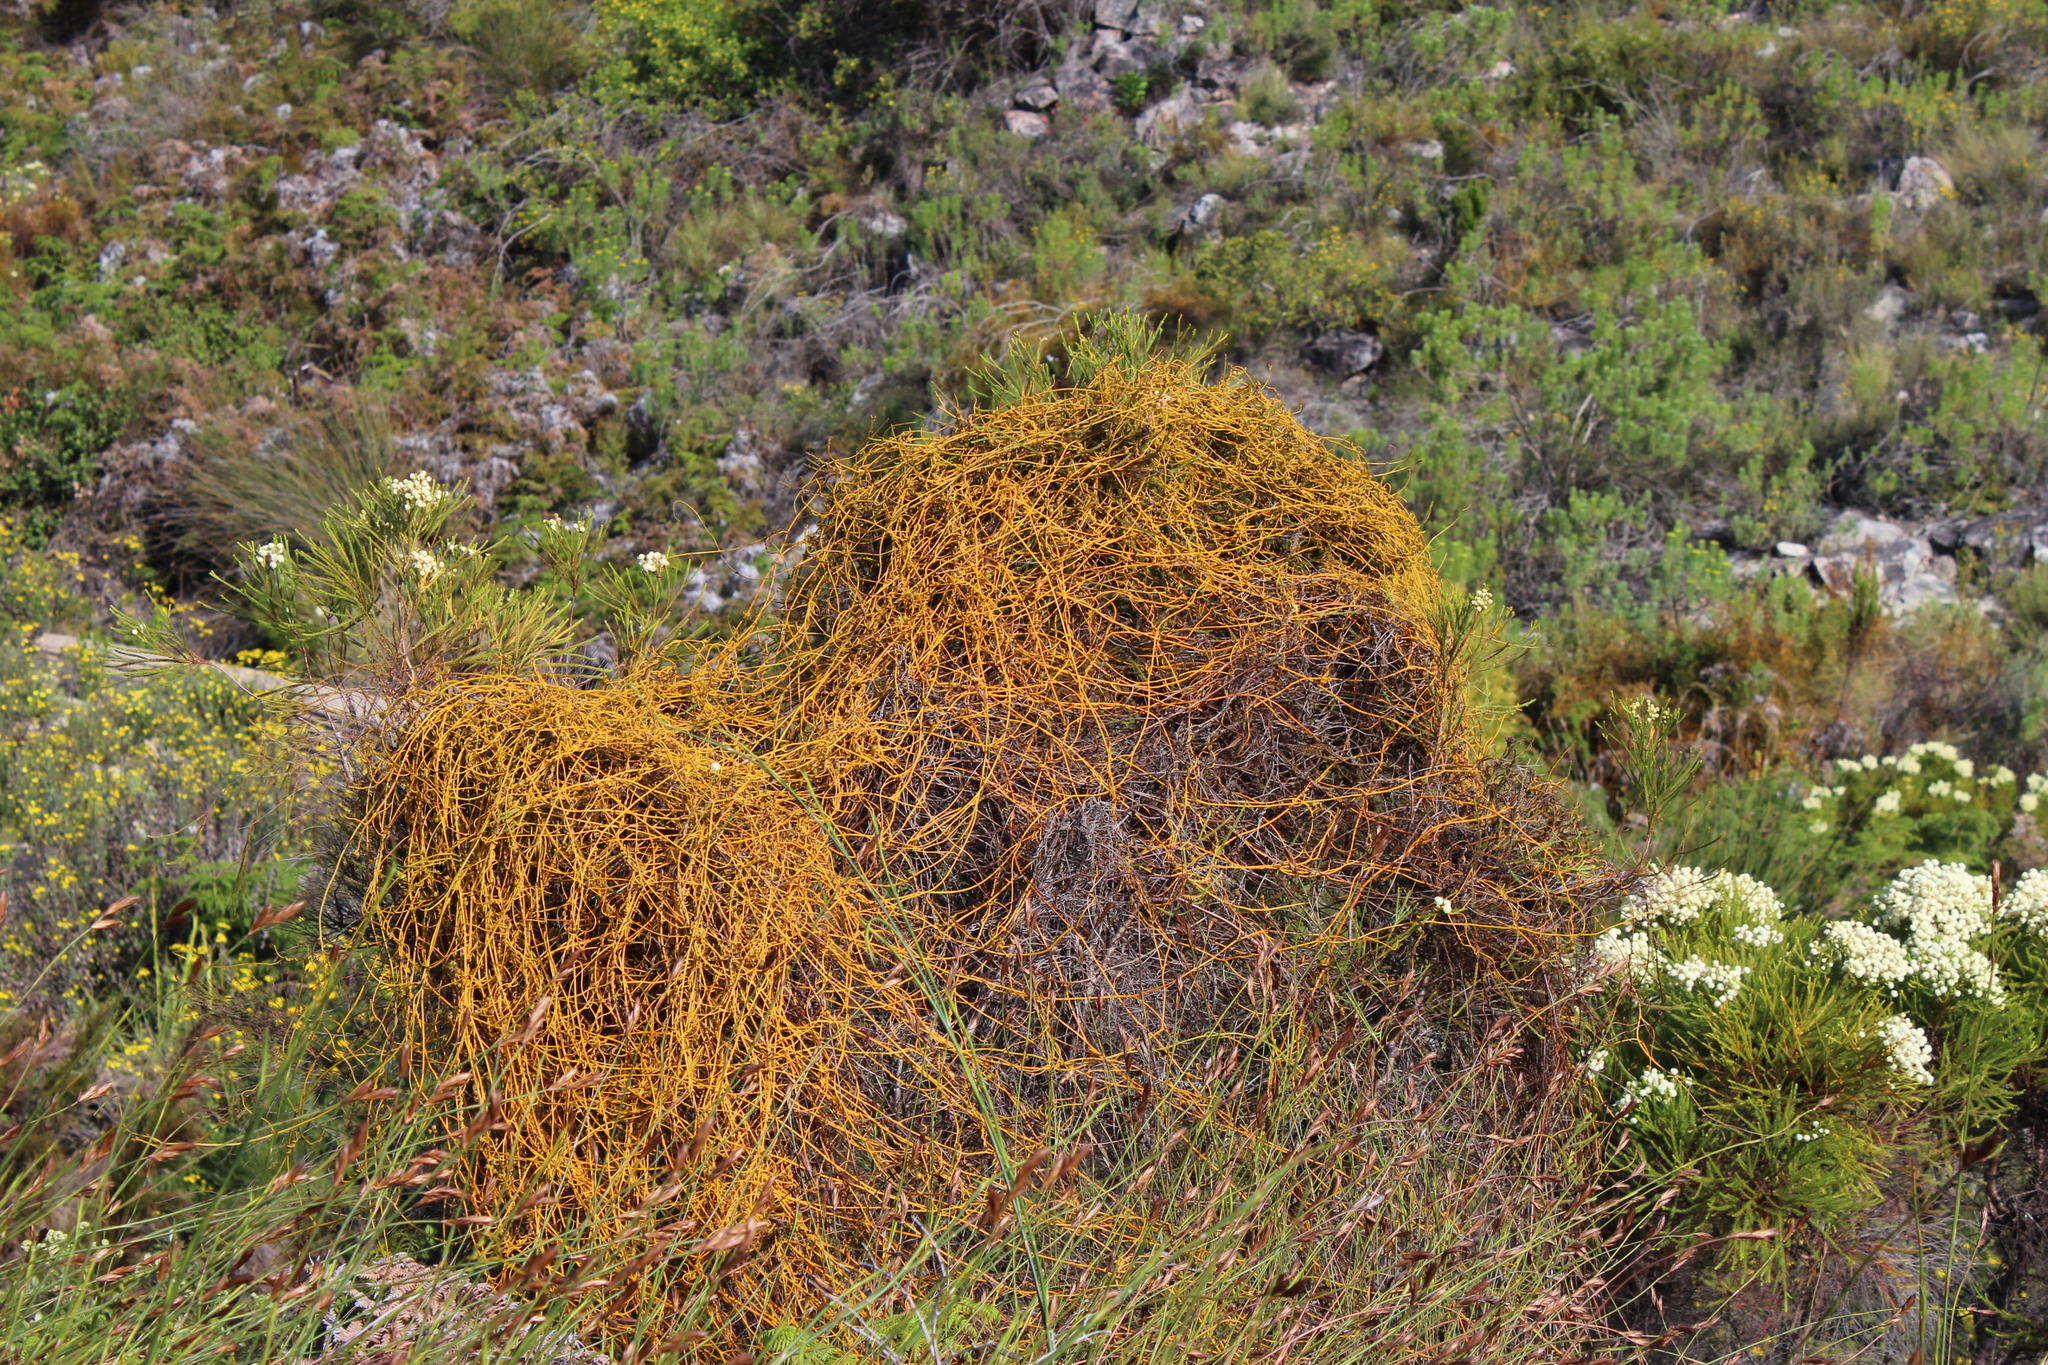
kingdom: Plantae
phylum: Tracheophyta
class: Magnoliopsida
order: Laurales
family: Lauraceae
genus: Cassytha
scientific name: Cassytha ciliolata
